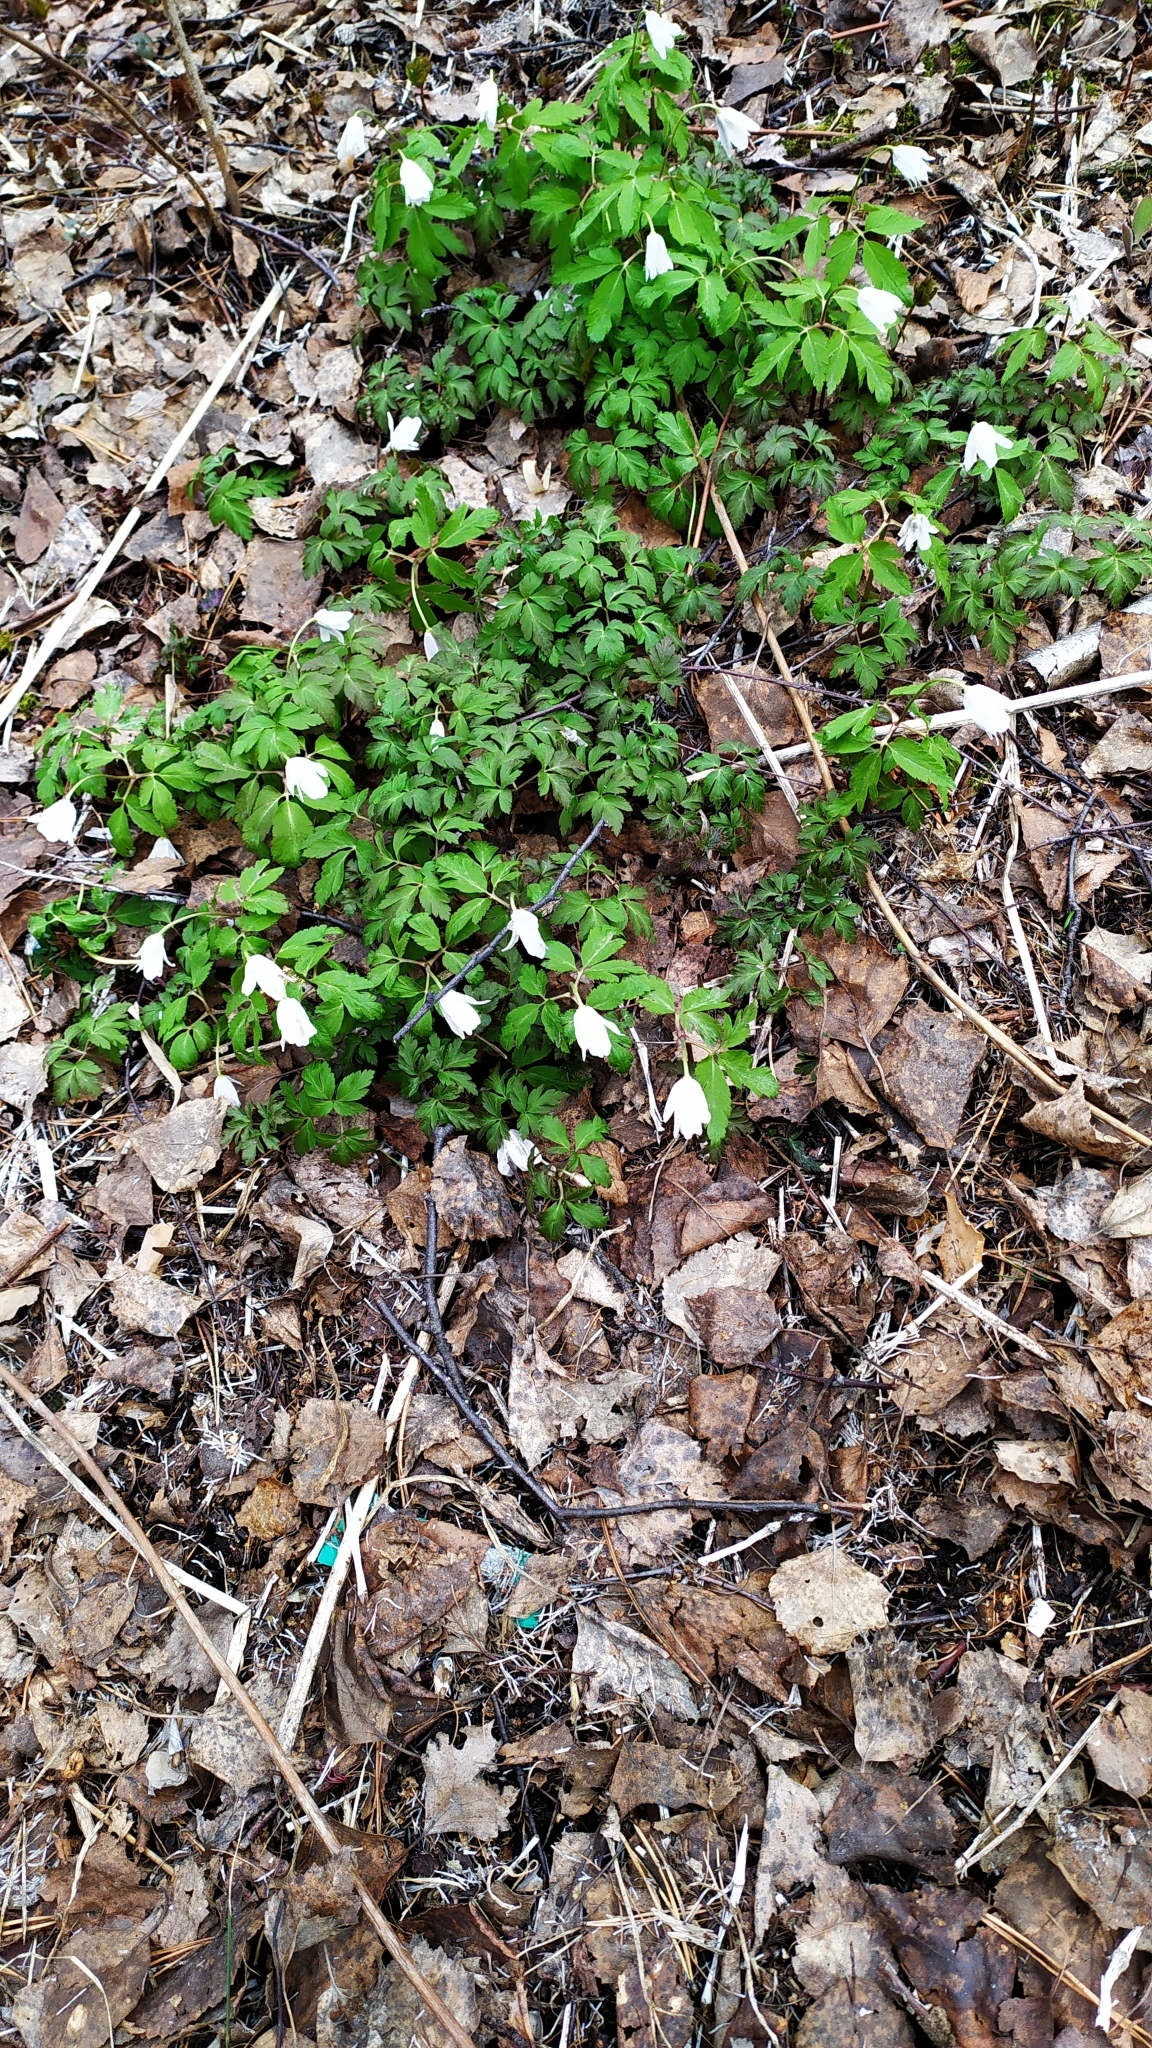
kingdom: Plantae
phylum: Tracheophyta
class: Magnoliopsida
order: Ranunculales
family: Ranunculaceae
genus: Anemone
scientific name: Anemone altaica
